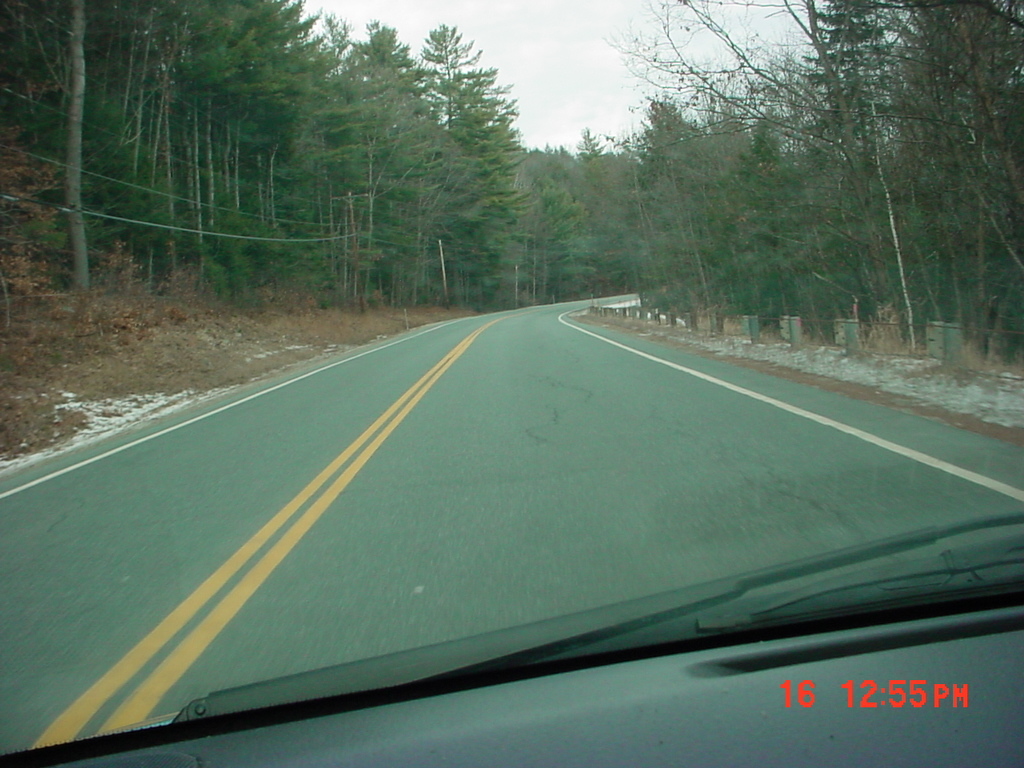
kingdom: Plantae
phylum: Tracheophyta
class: Pinopsida
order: Pinales
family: Pinaceae
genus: Pinus
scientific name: Pinus strobus
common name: Weymouth pine
